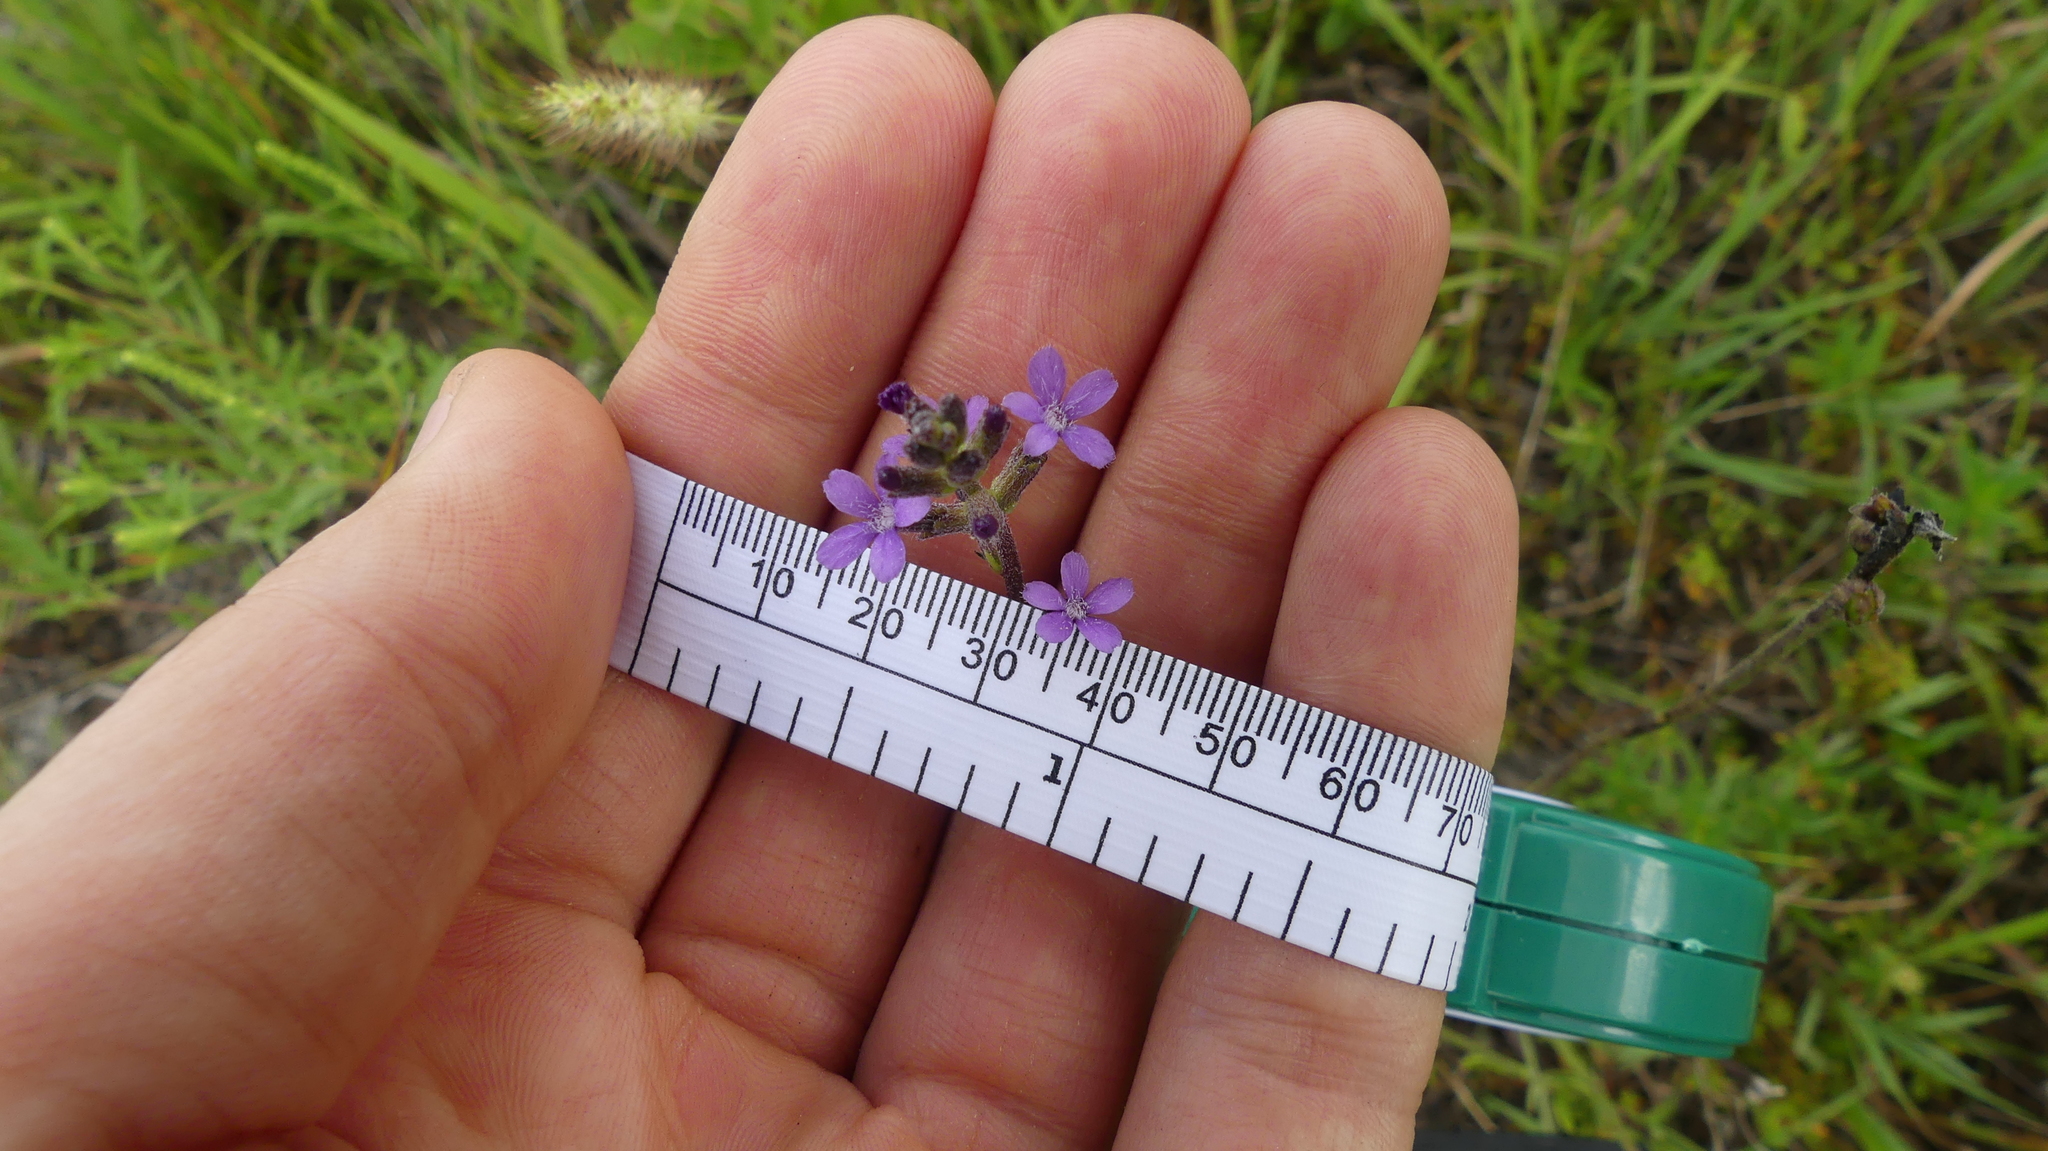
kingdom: Plantae
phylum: Tracheophyta
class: Magnoliopsida
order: Lamiales
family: Orobanchaceae
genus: Buchnera
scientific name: Buchnera floridana
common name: Florida bluehearts
